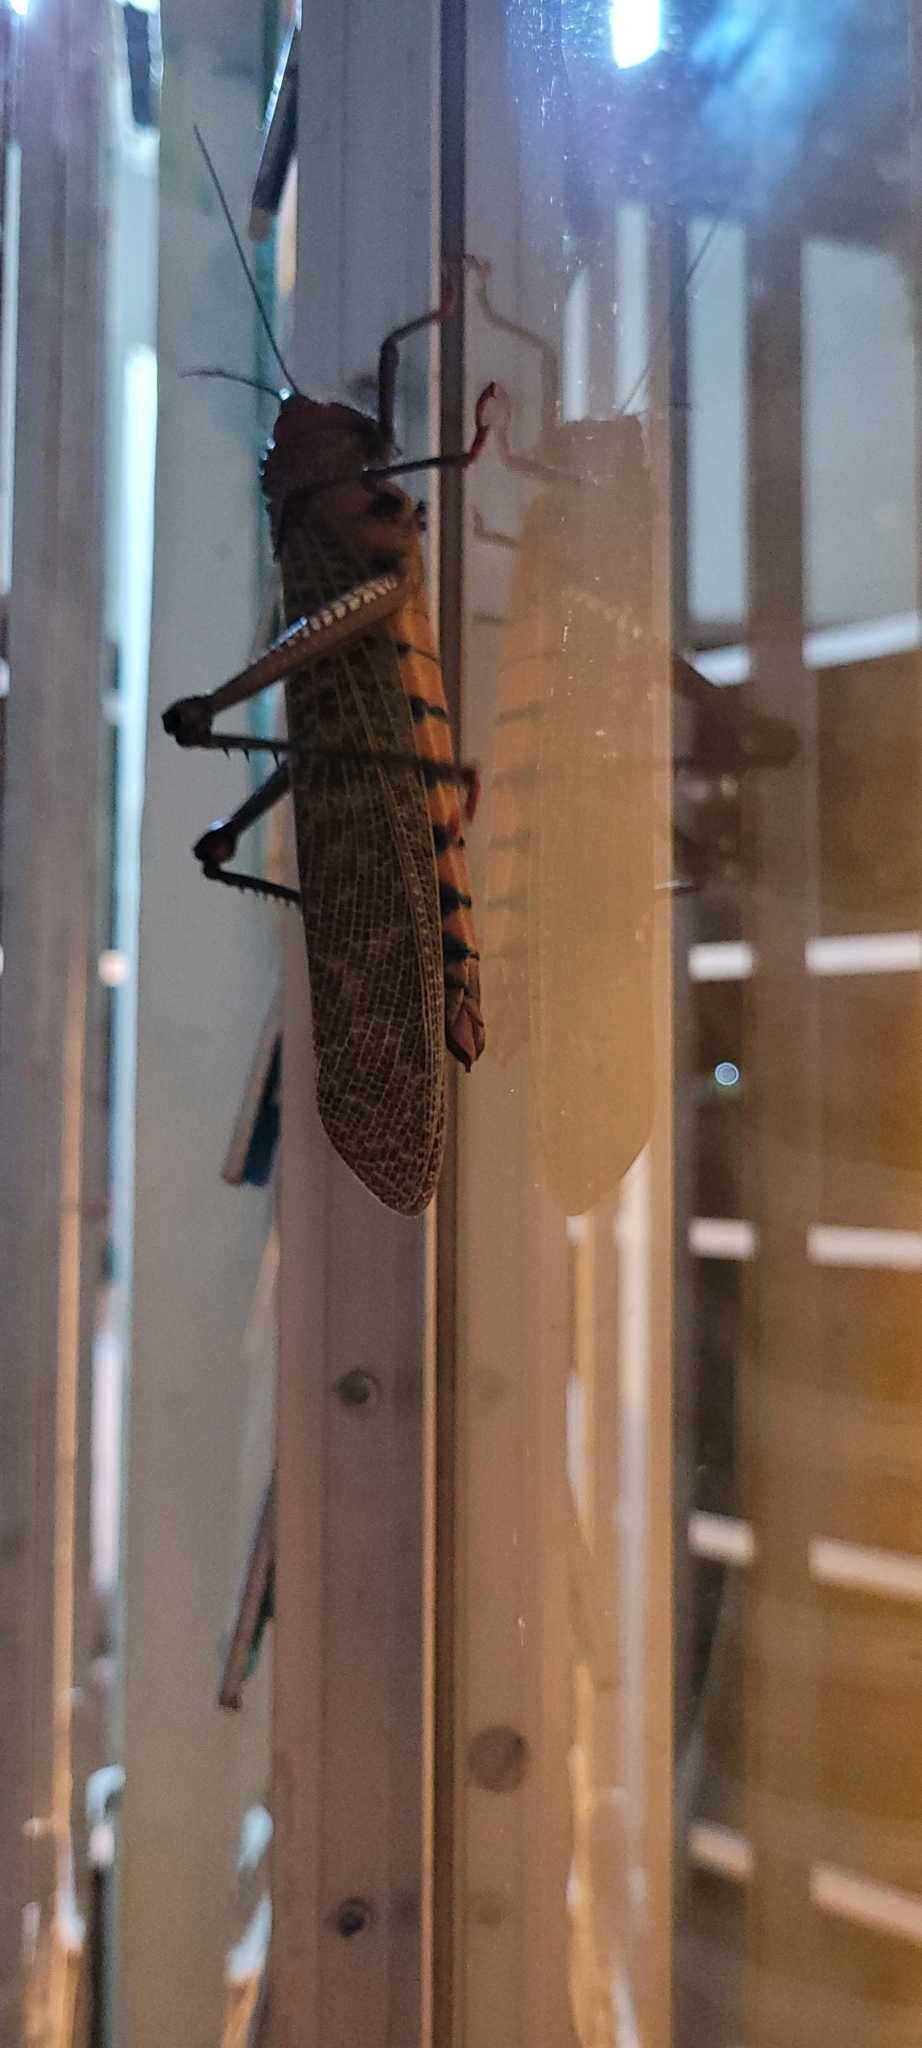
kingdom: Animalia
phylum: Arthropoda
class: Insecta
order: Orthoptera
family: Romaleidae
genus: Tropidacris
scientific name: Tropidacris cristata
